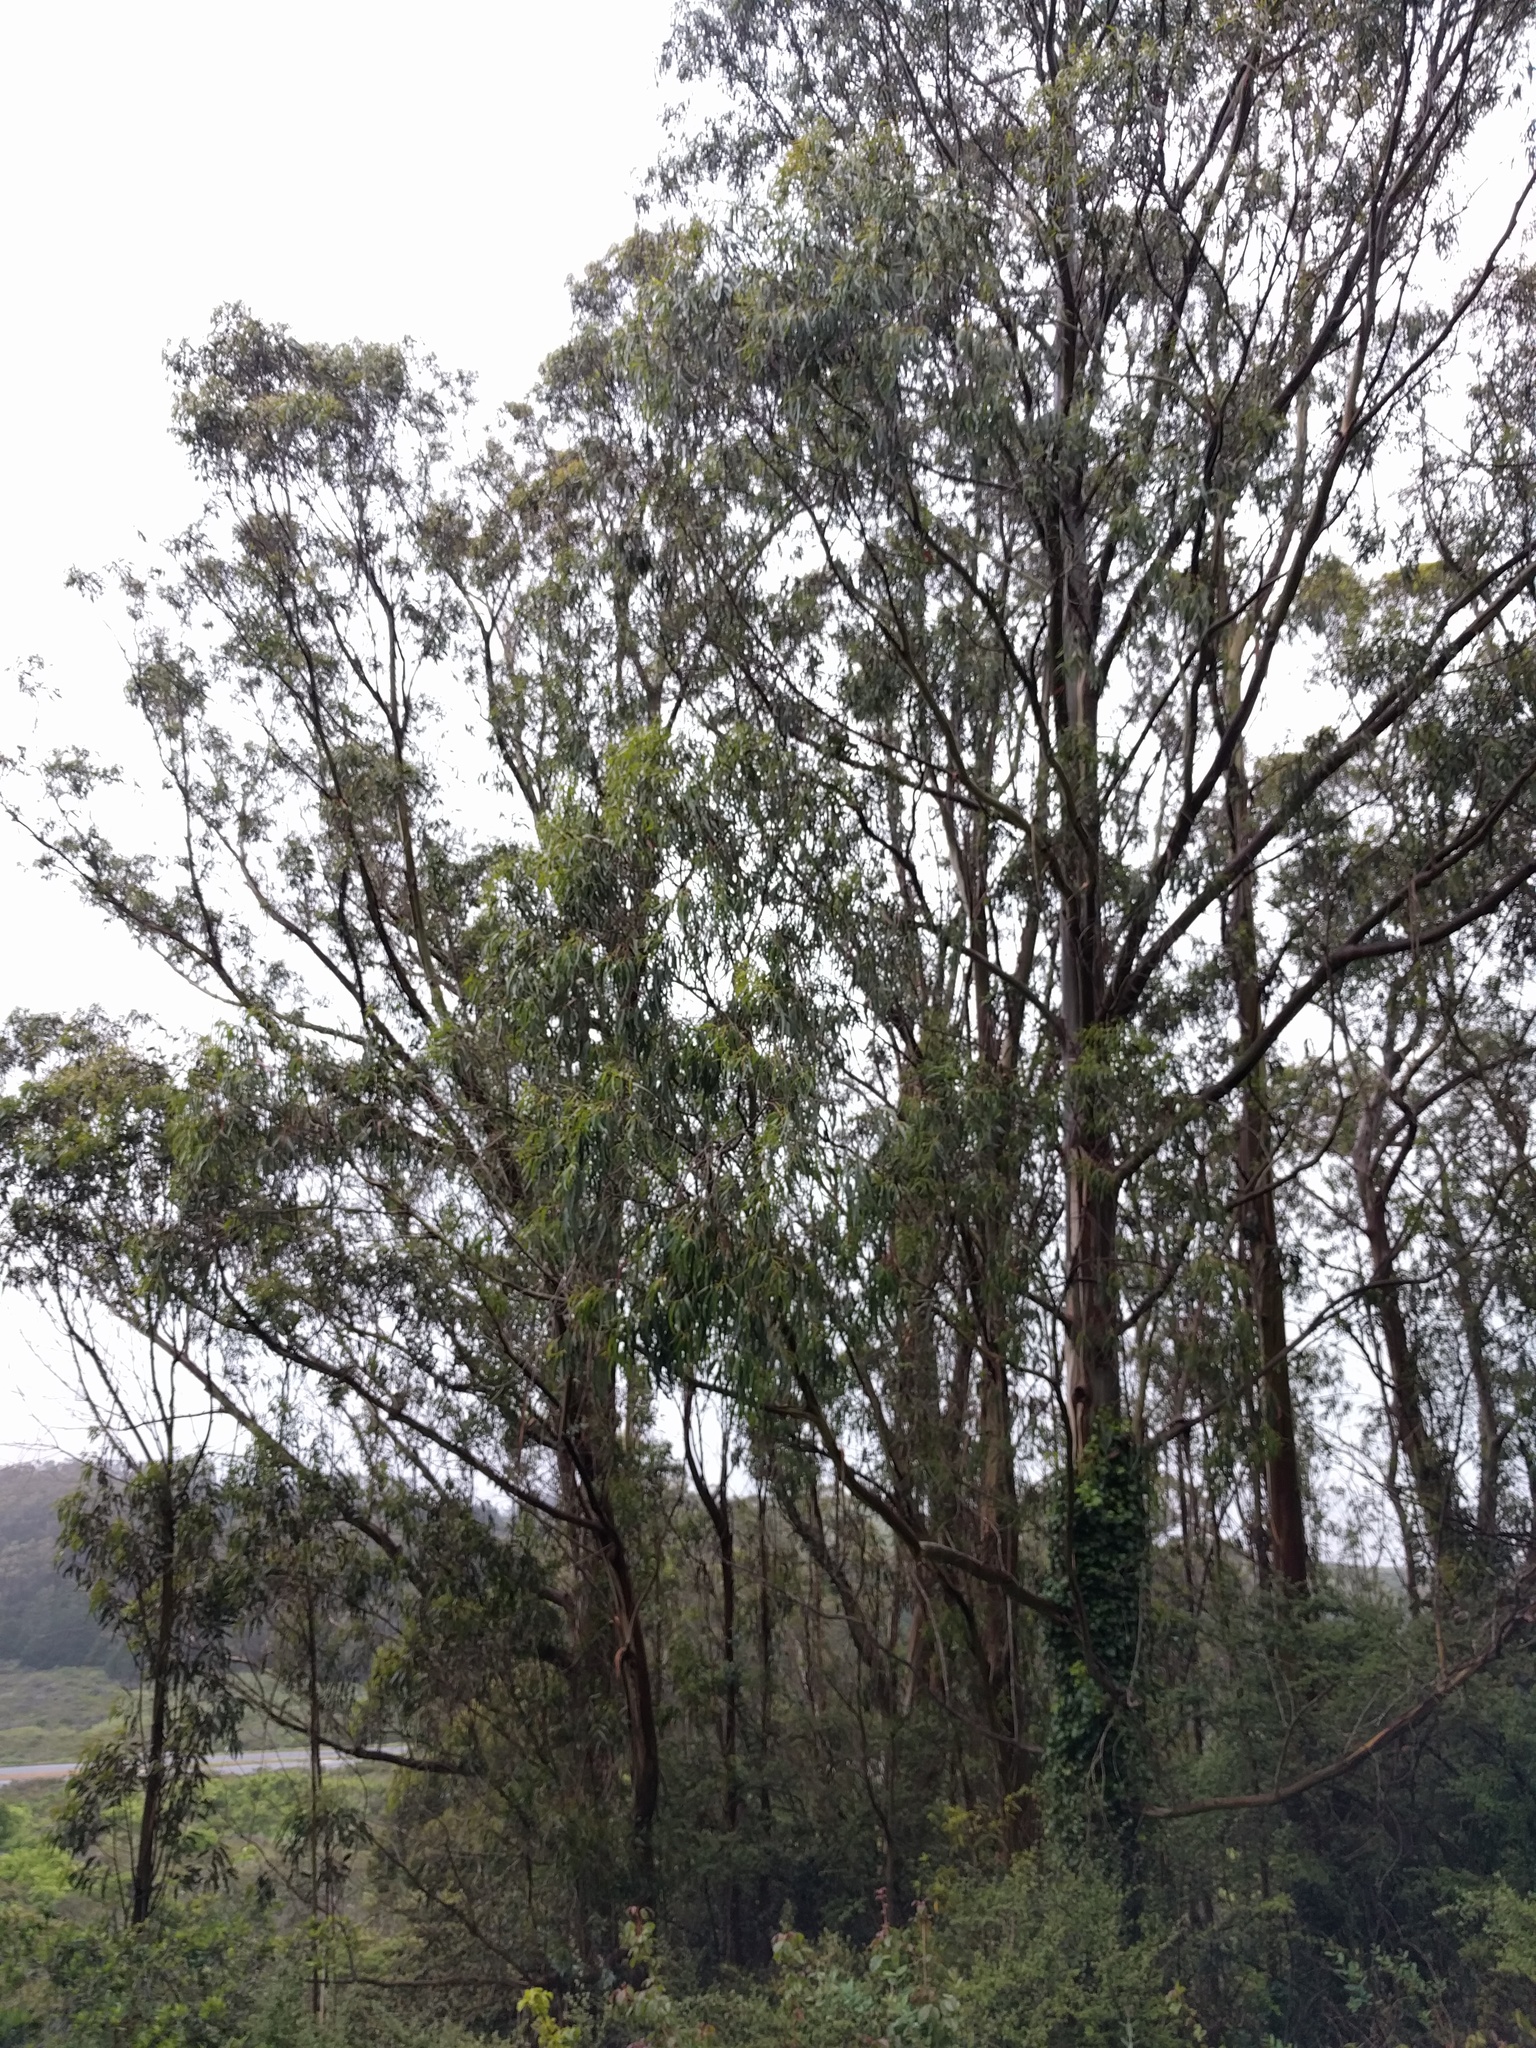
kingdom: Plantae
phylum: Tracheophyta
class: Magnoliopsida
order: Myrtales
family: Myrtaceae
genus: Eucalyptus
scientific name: Eucalyptus globulus
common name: Southern blue-gum
